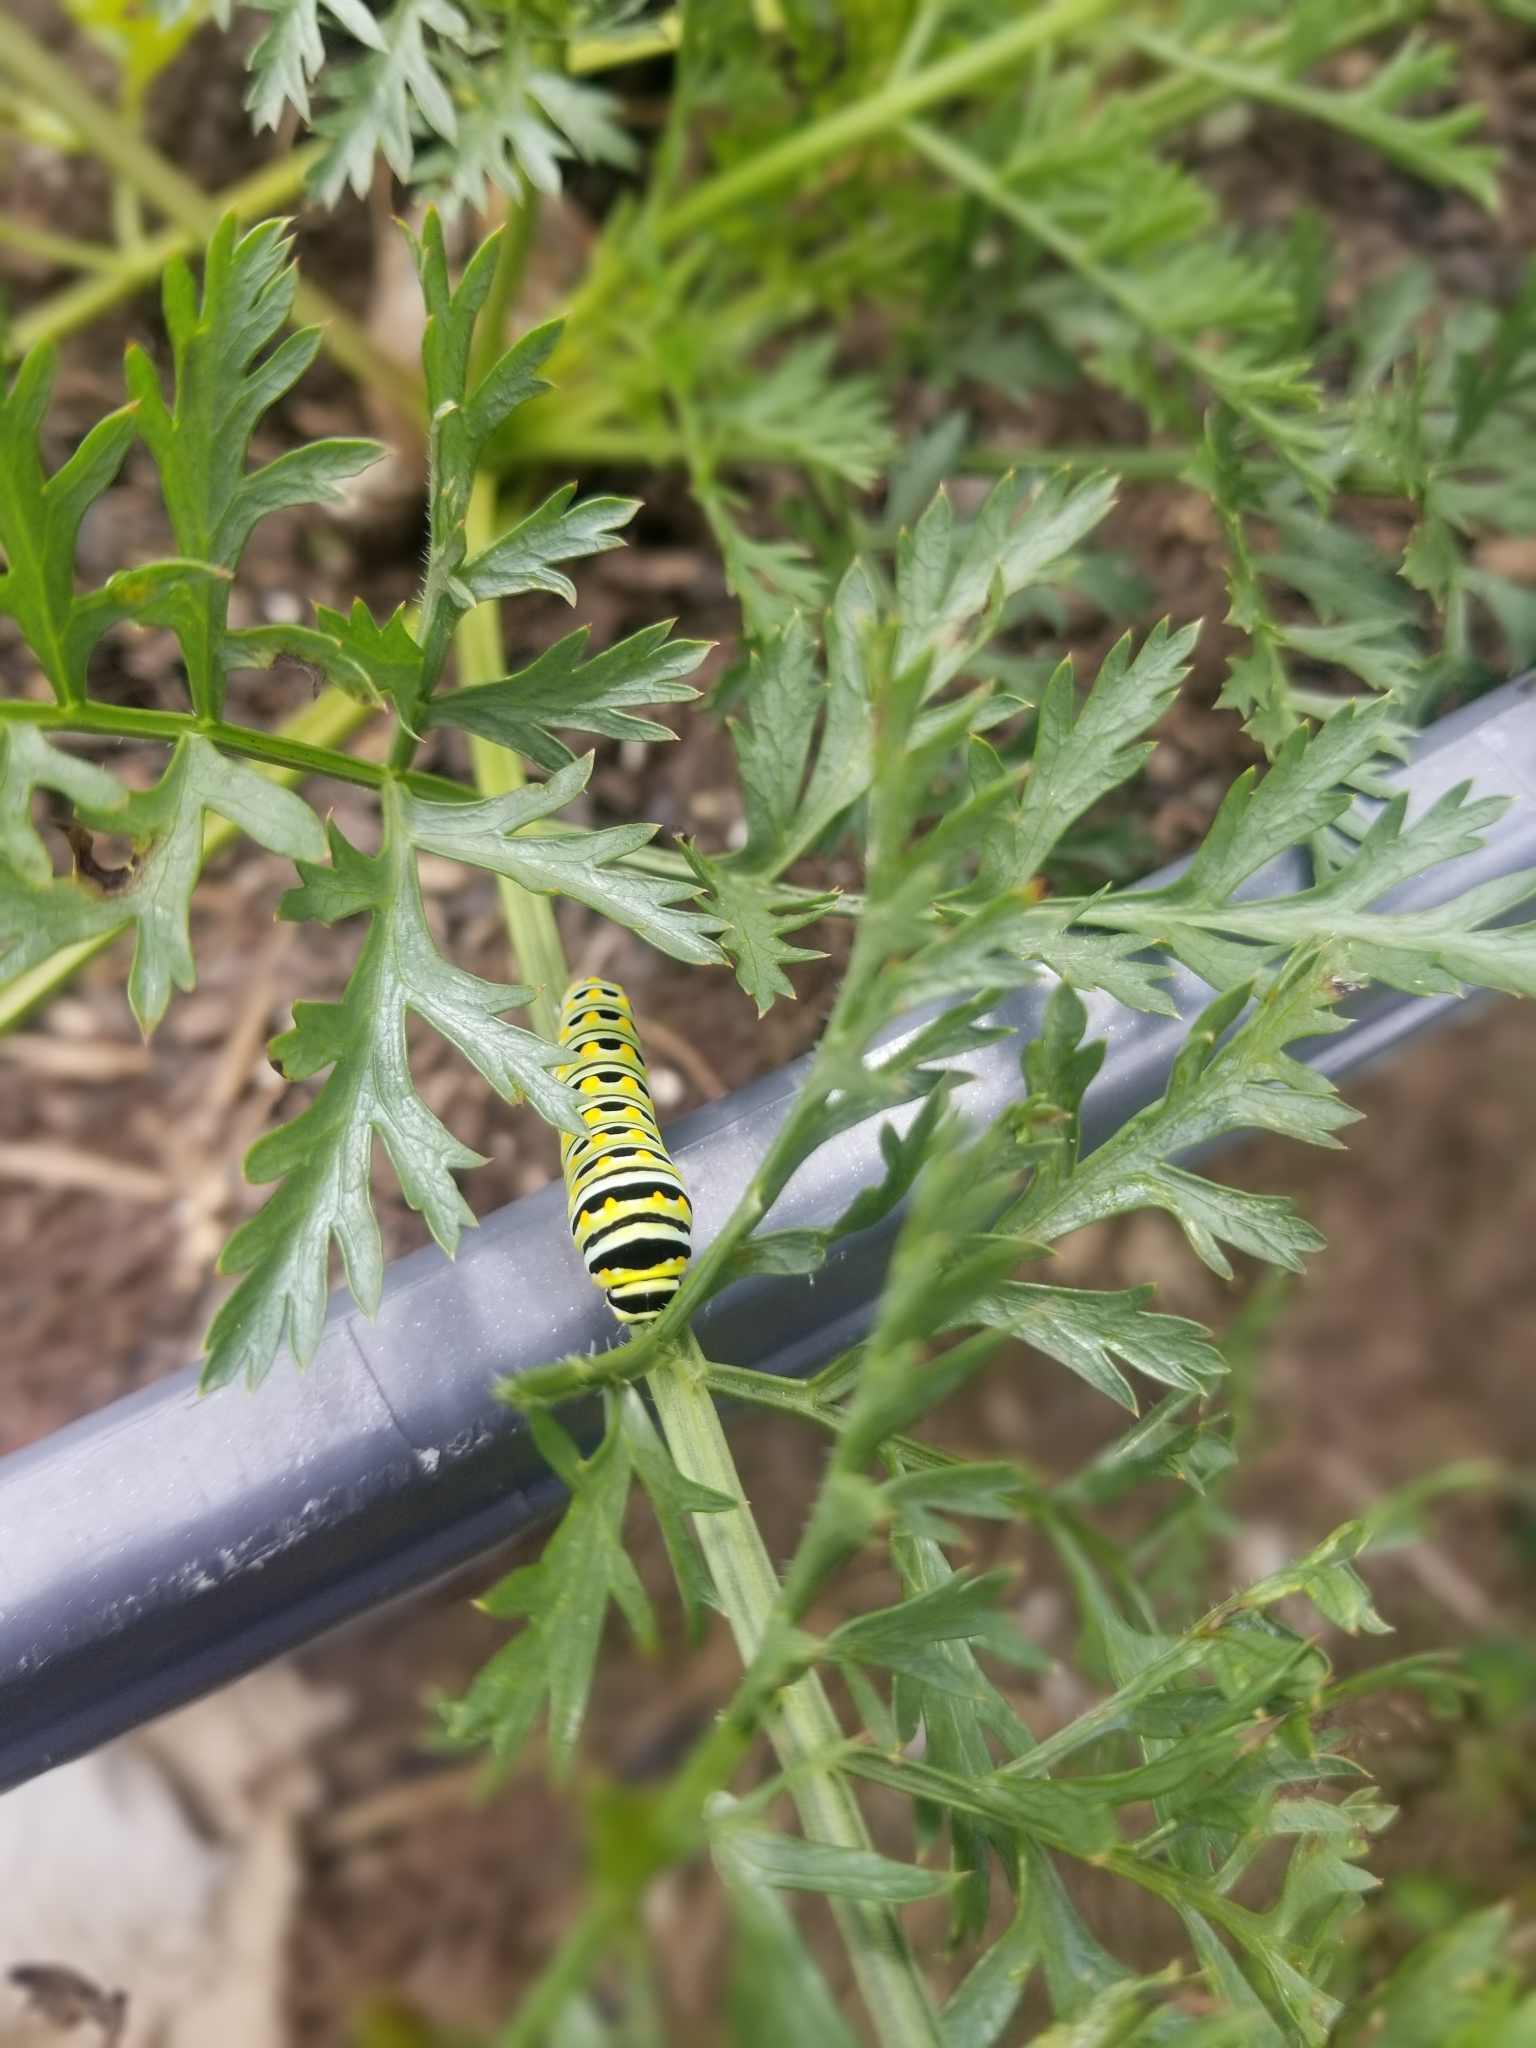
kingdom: Animalia
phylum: Arthropoda
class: Insecta
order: Lepidoptera
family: Papilionidae
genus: Papilio
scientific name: Papilio polyxenes
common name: Black swallowtail
